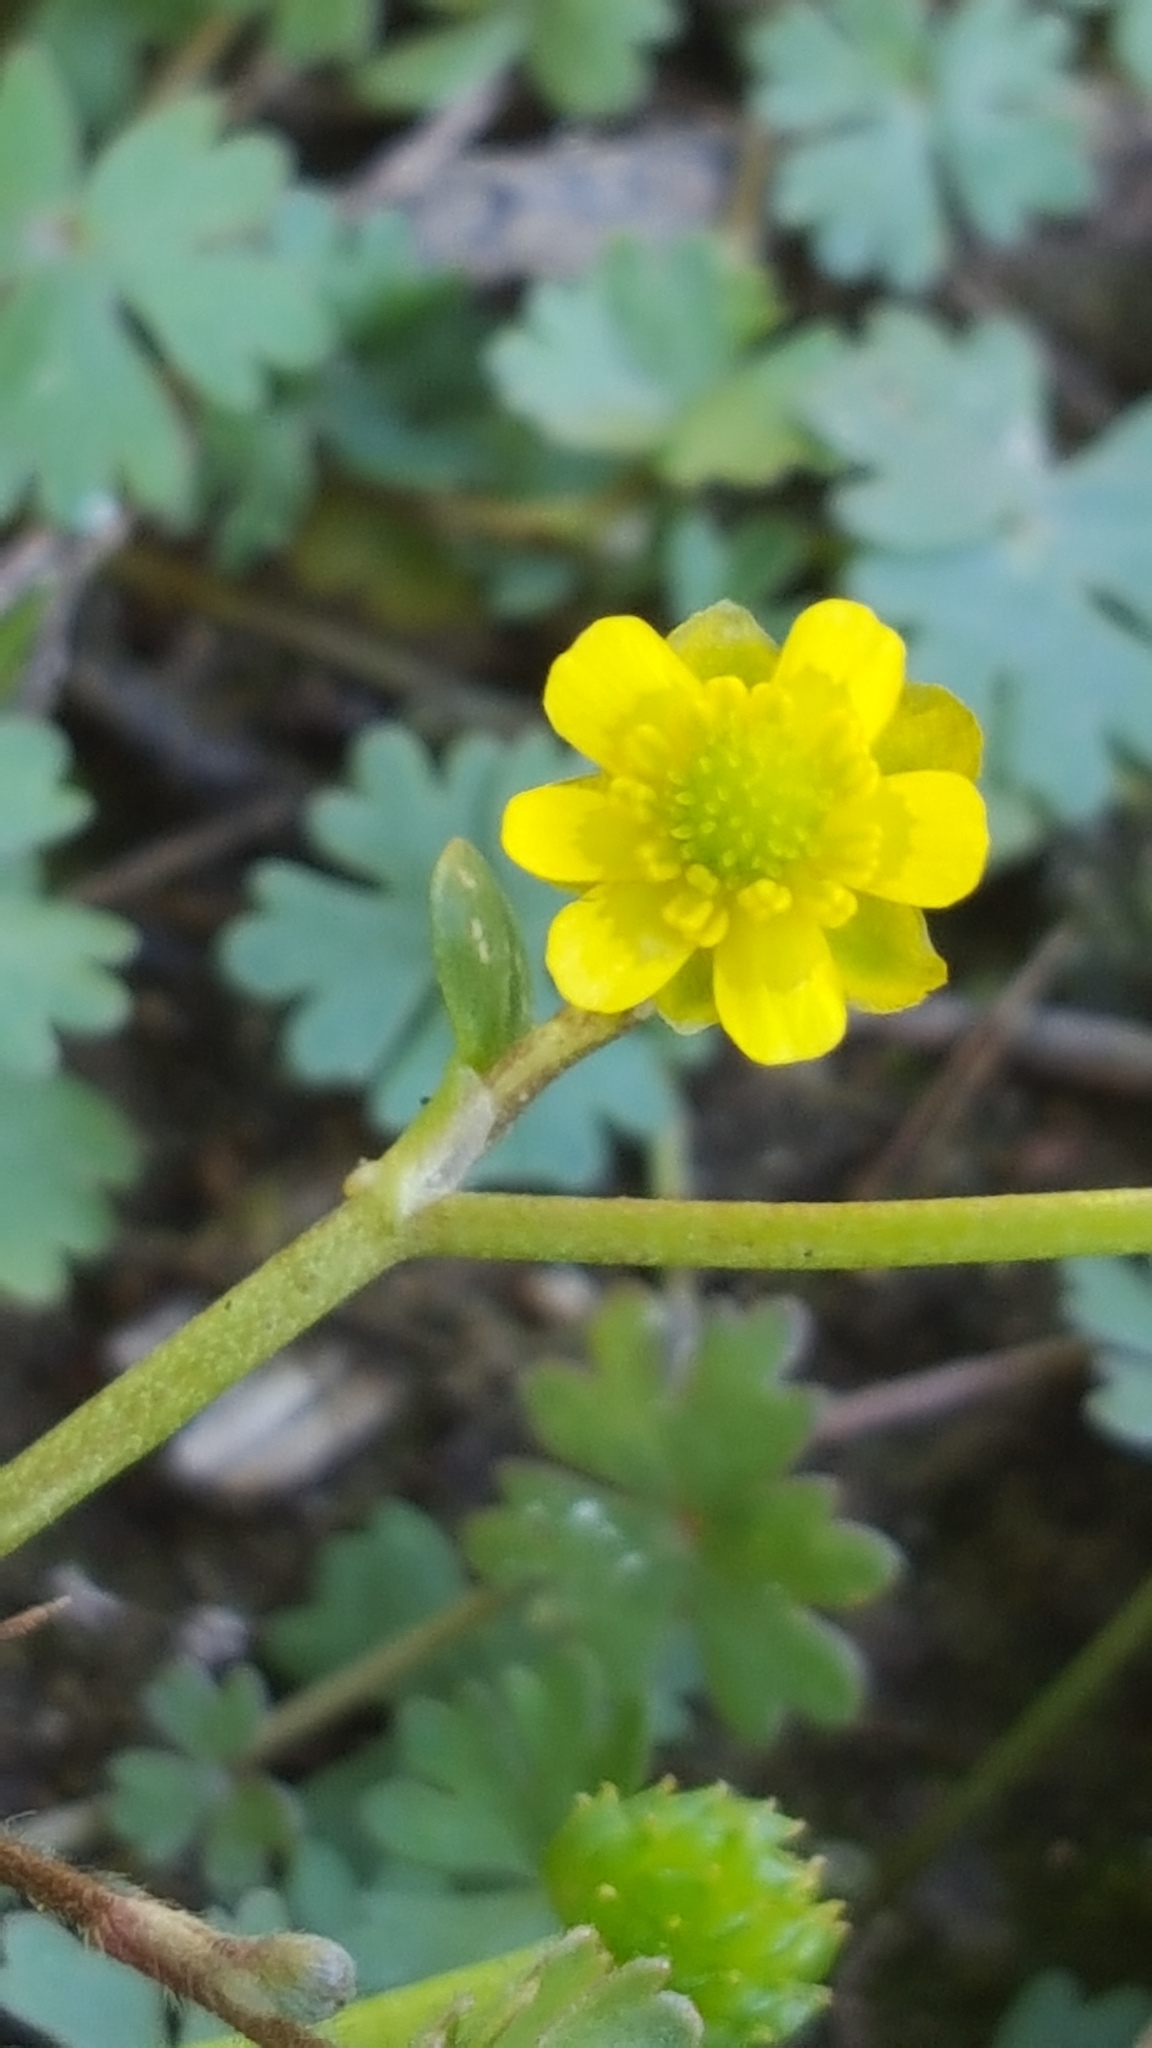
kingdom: Plantae
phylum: Tracheophyta
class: Magnoliopsida
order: Ranunculales
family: Ranunculaceae
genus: Ranunculus
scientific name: Ranunculus gmelinii
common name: Gmelin's buttercup
